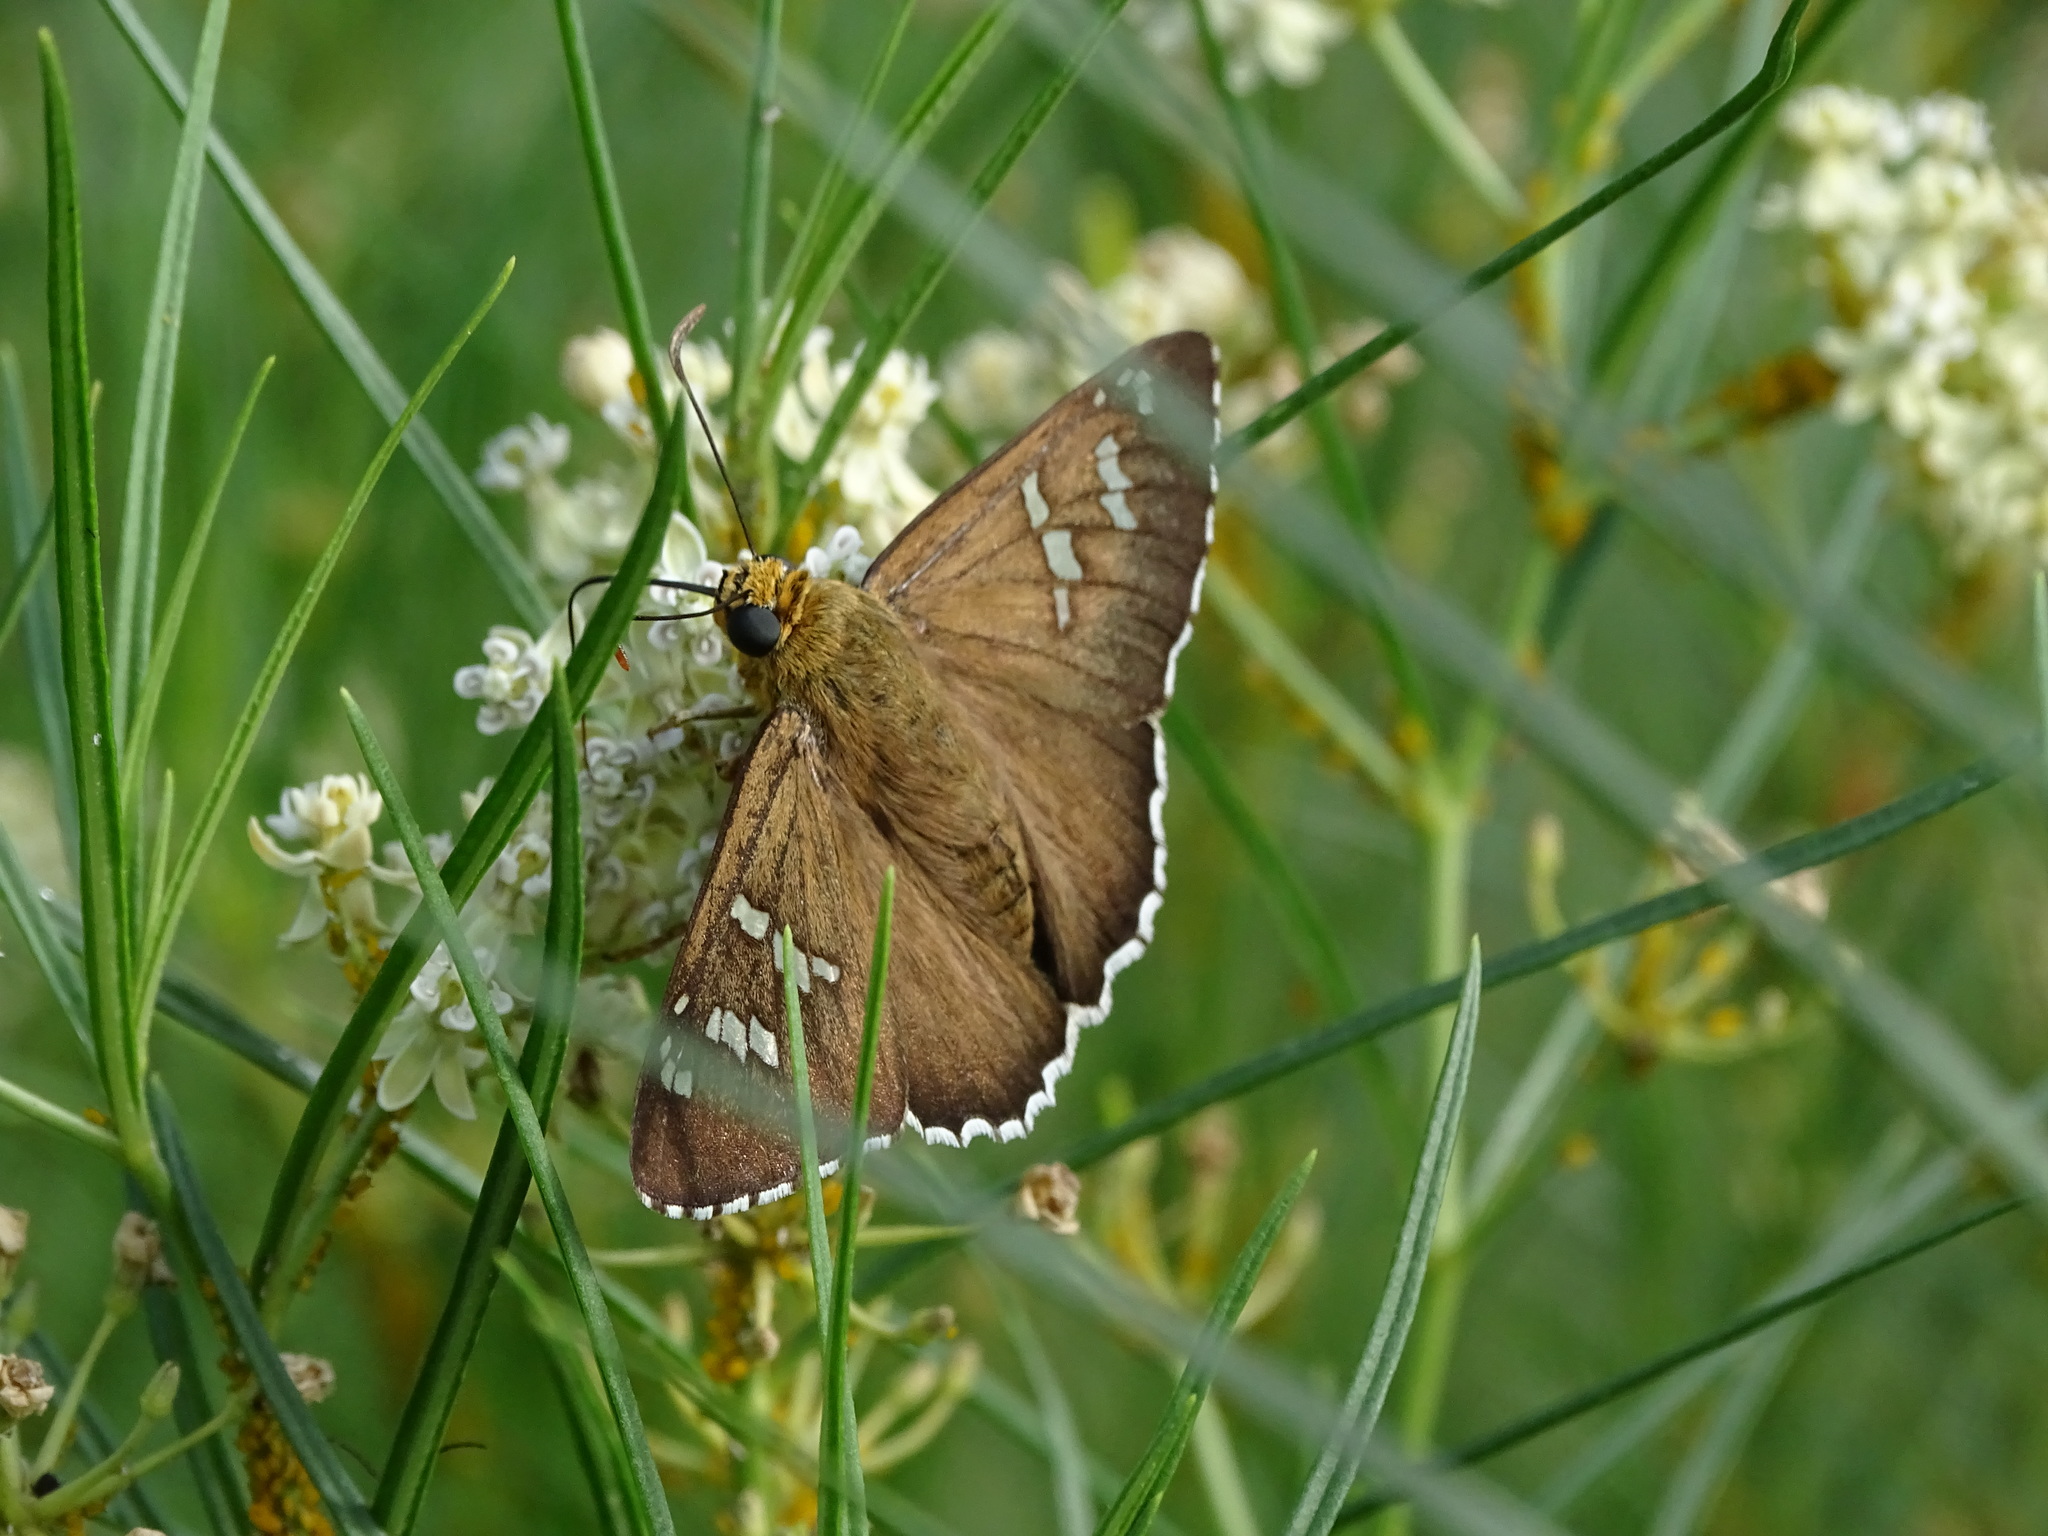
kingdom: Animalia
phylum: Arthropoda
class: Insecta
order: Lepidoptera
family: Hesperiidae
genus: Pyrrhopyge
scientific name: Pyrrhopyge araxes
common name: Dull firetip
